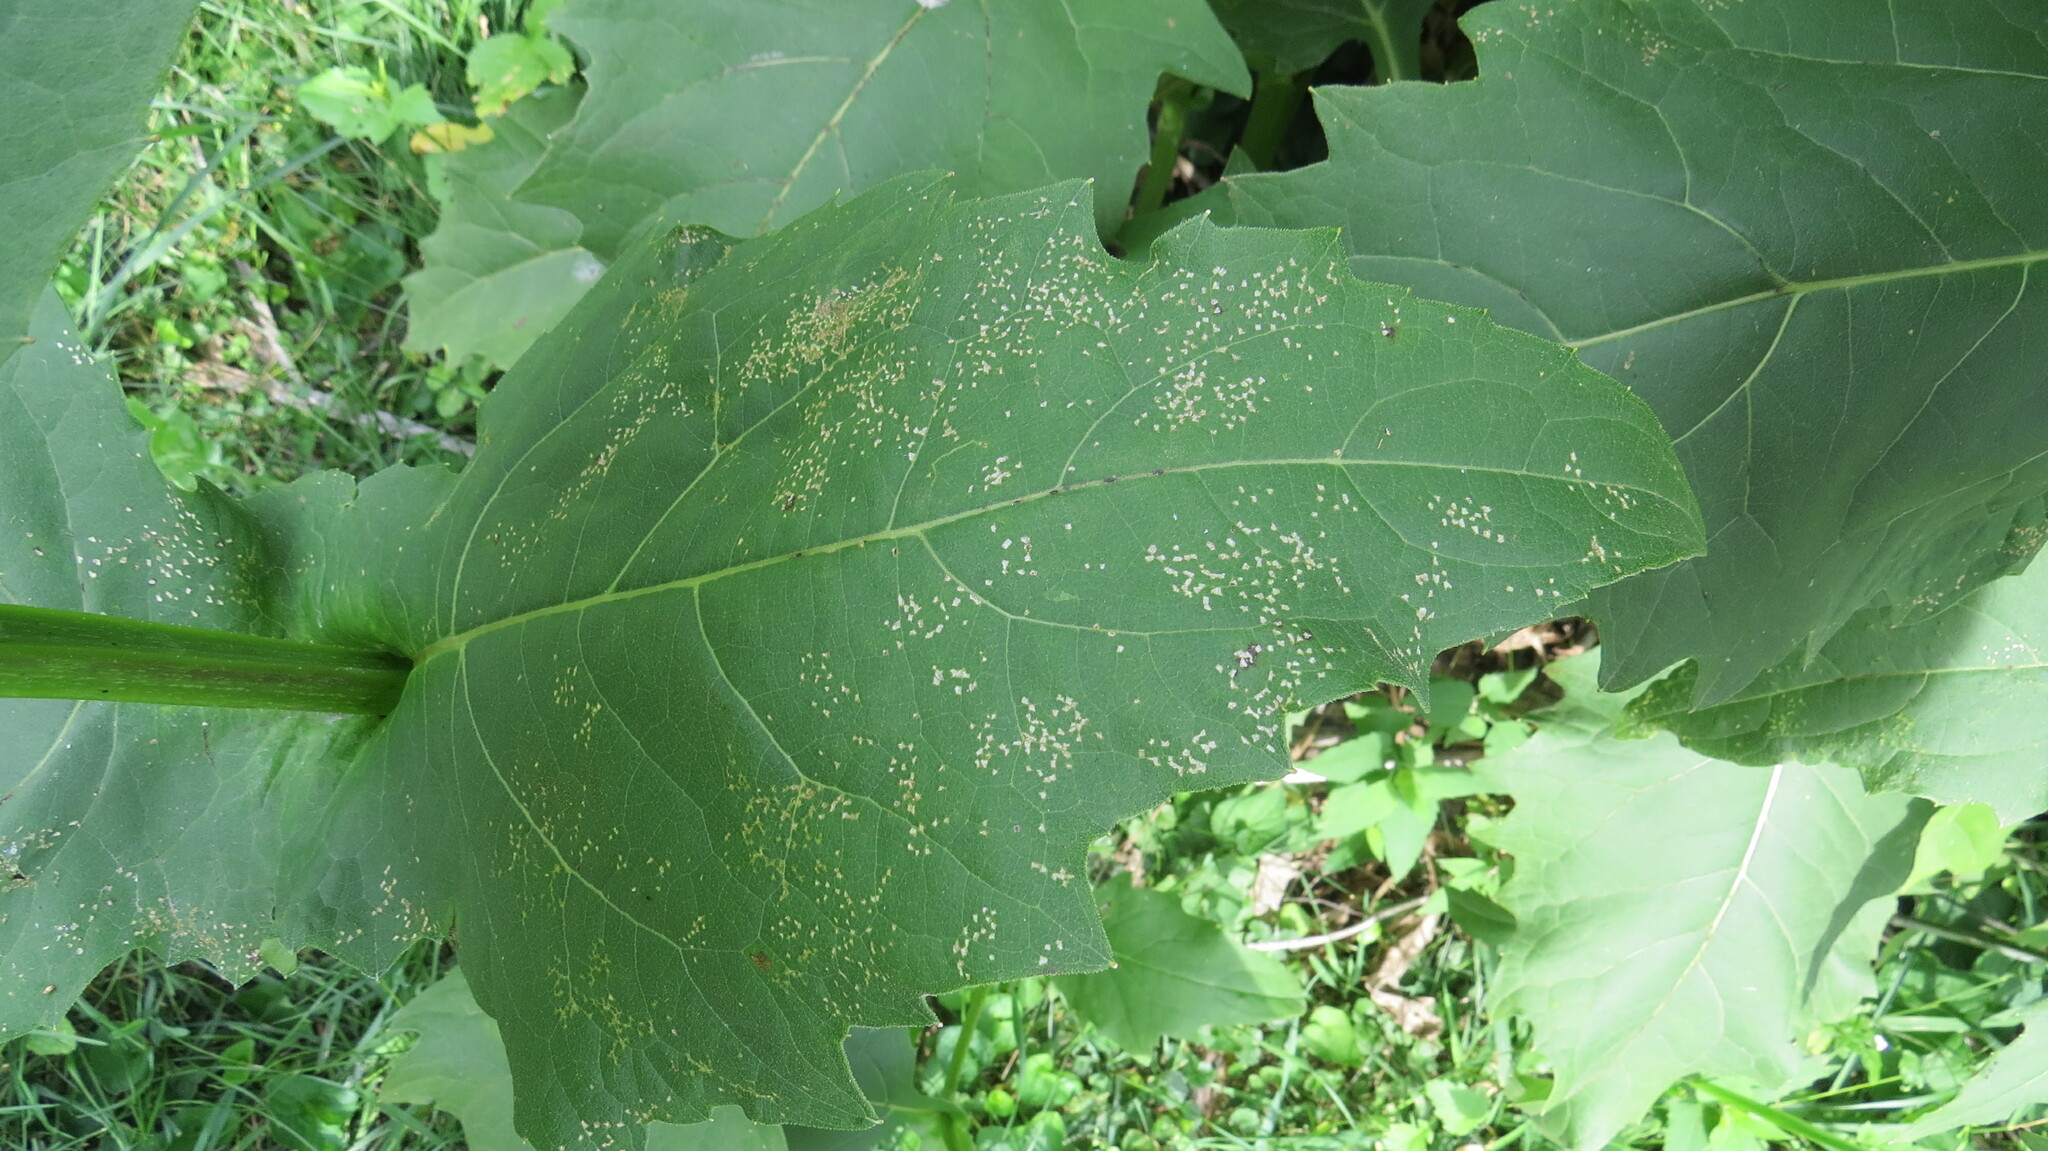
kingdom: Animalia
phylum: Arthropoda
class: Insecta
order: Hemiptera
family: Miridae
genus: Poecilocapsus
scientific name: Poecilocapsus lineatus
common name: Four-lined plant bug
